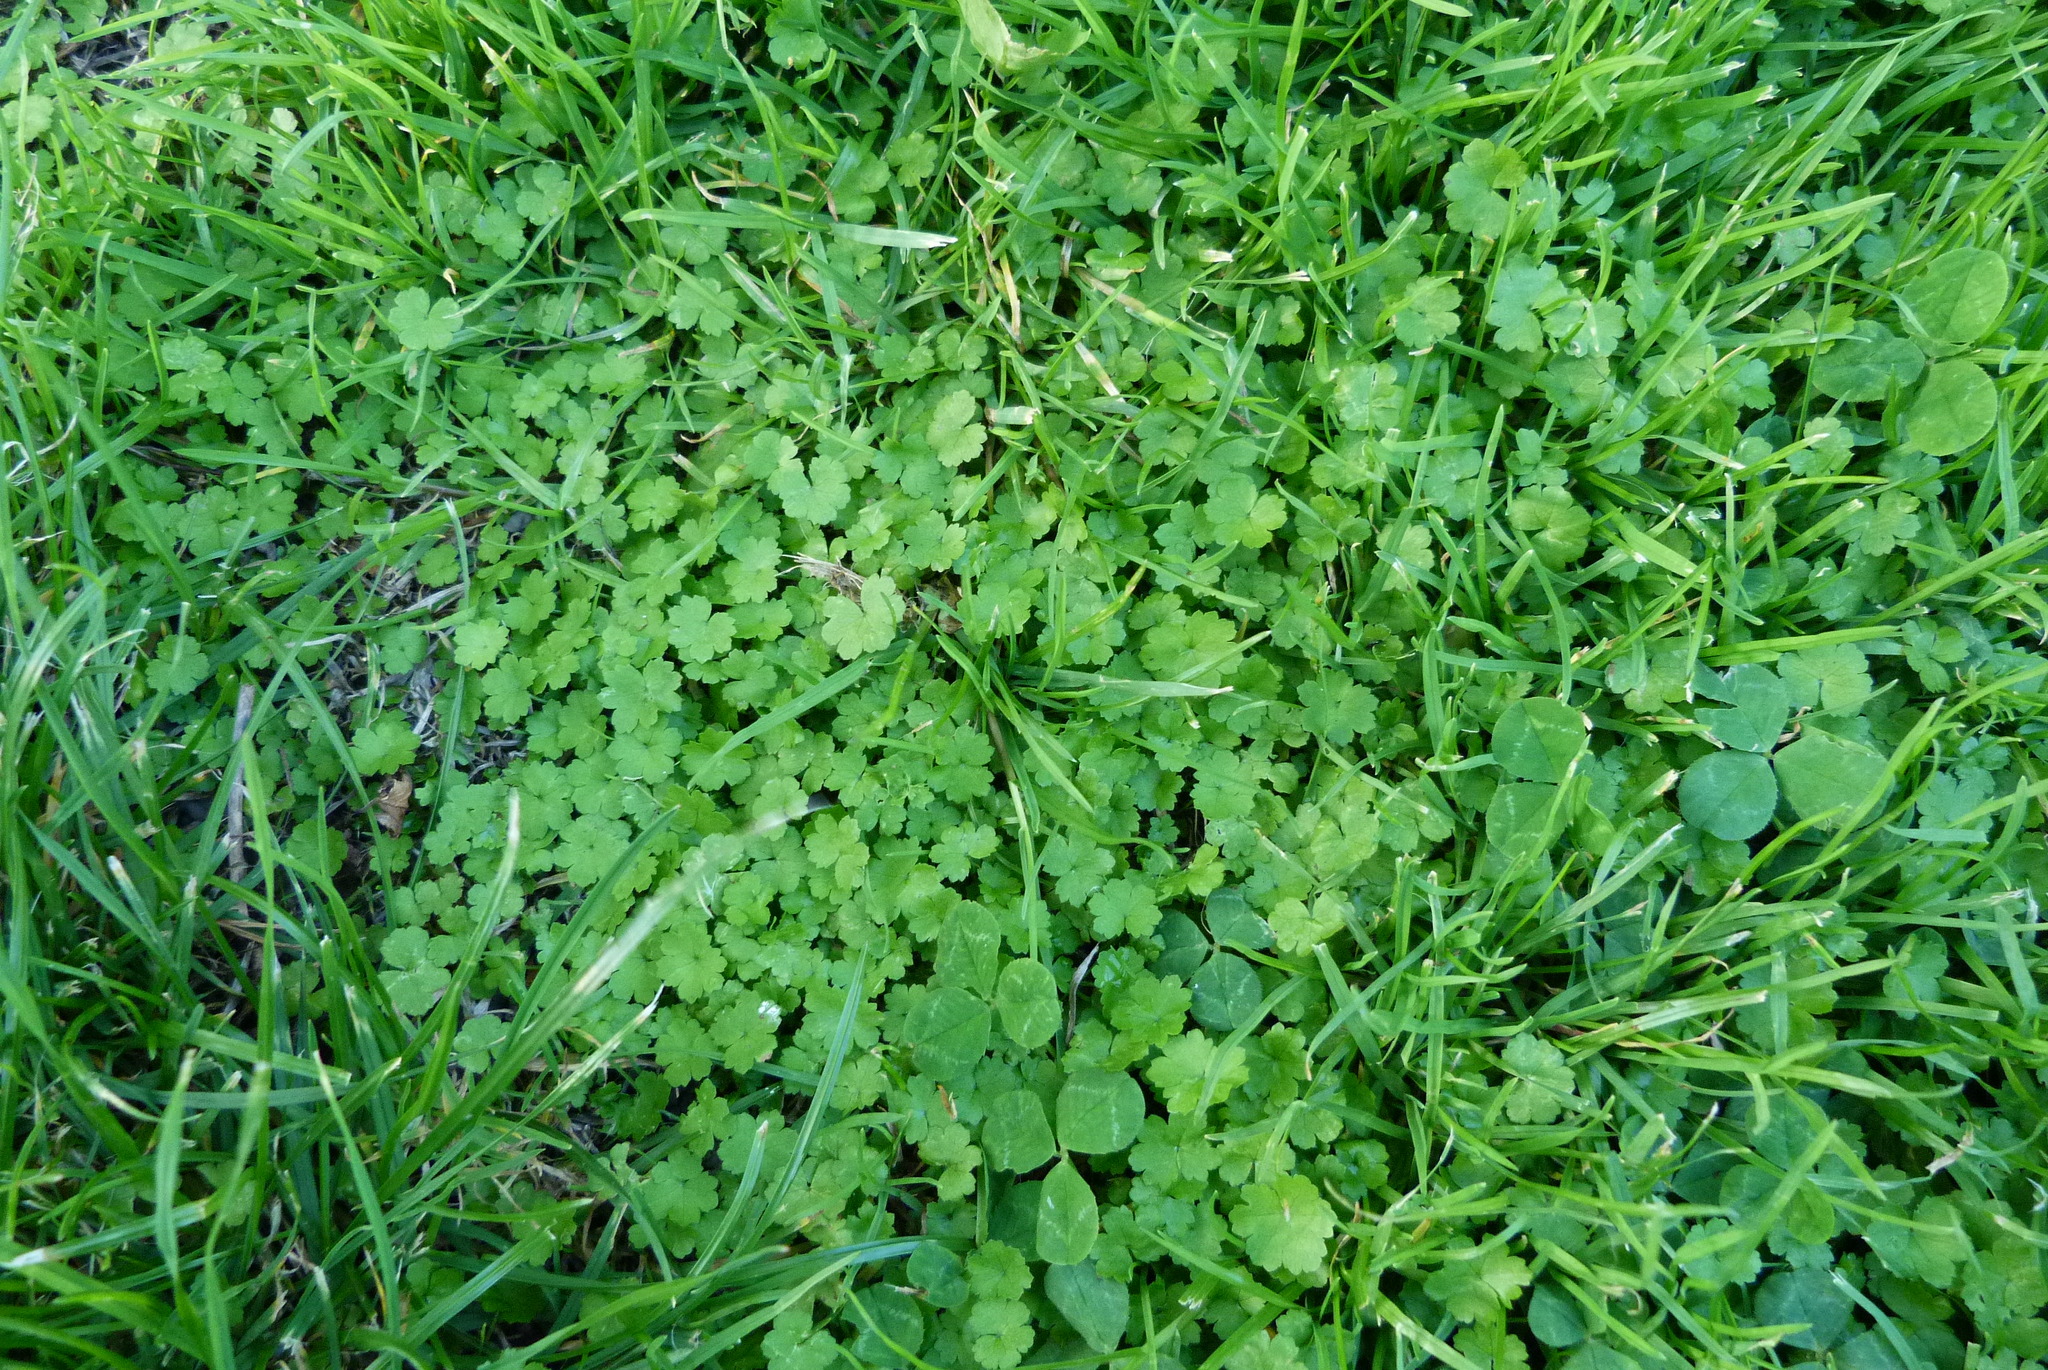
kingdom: Plantae
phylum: Tracheophyta
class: Magnoliopsida
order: Apiales
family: Araliaceae
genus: Hydrocotyle
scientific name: Hydrocotyle heteromeria
